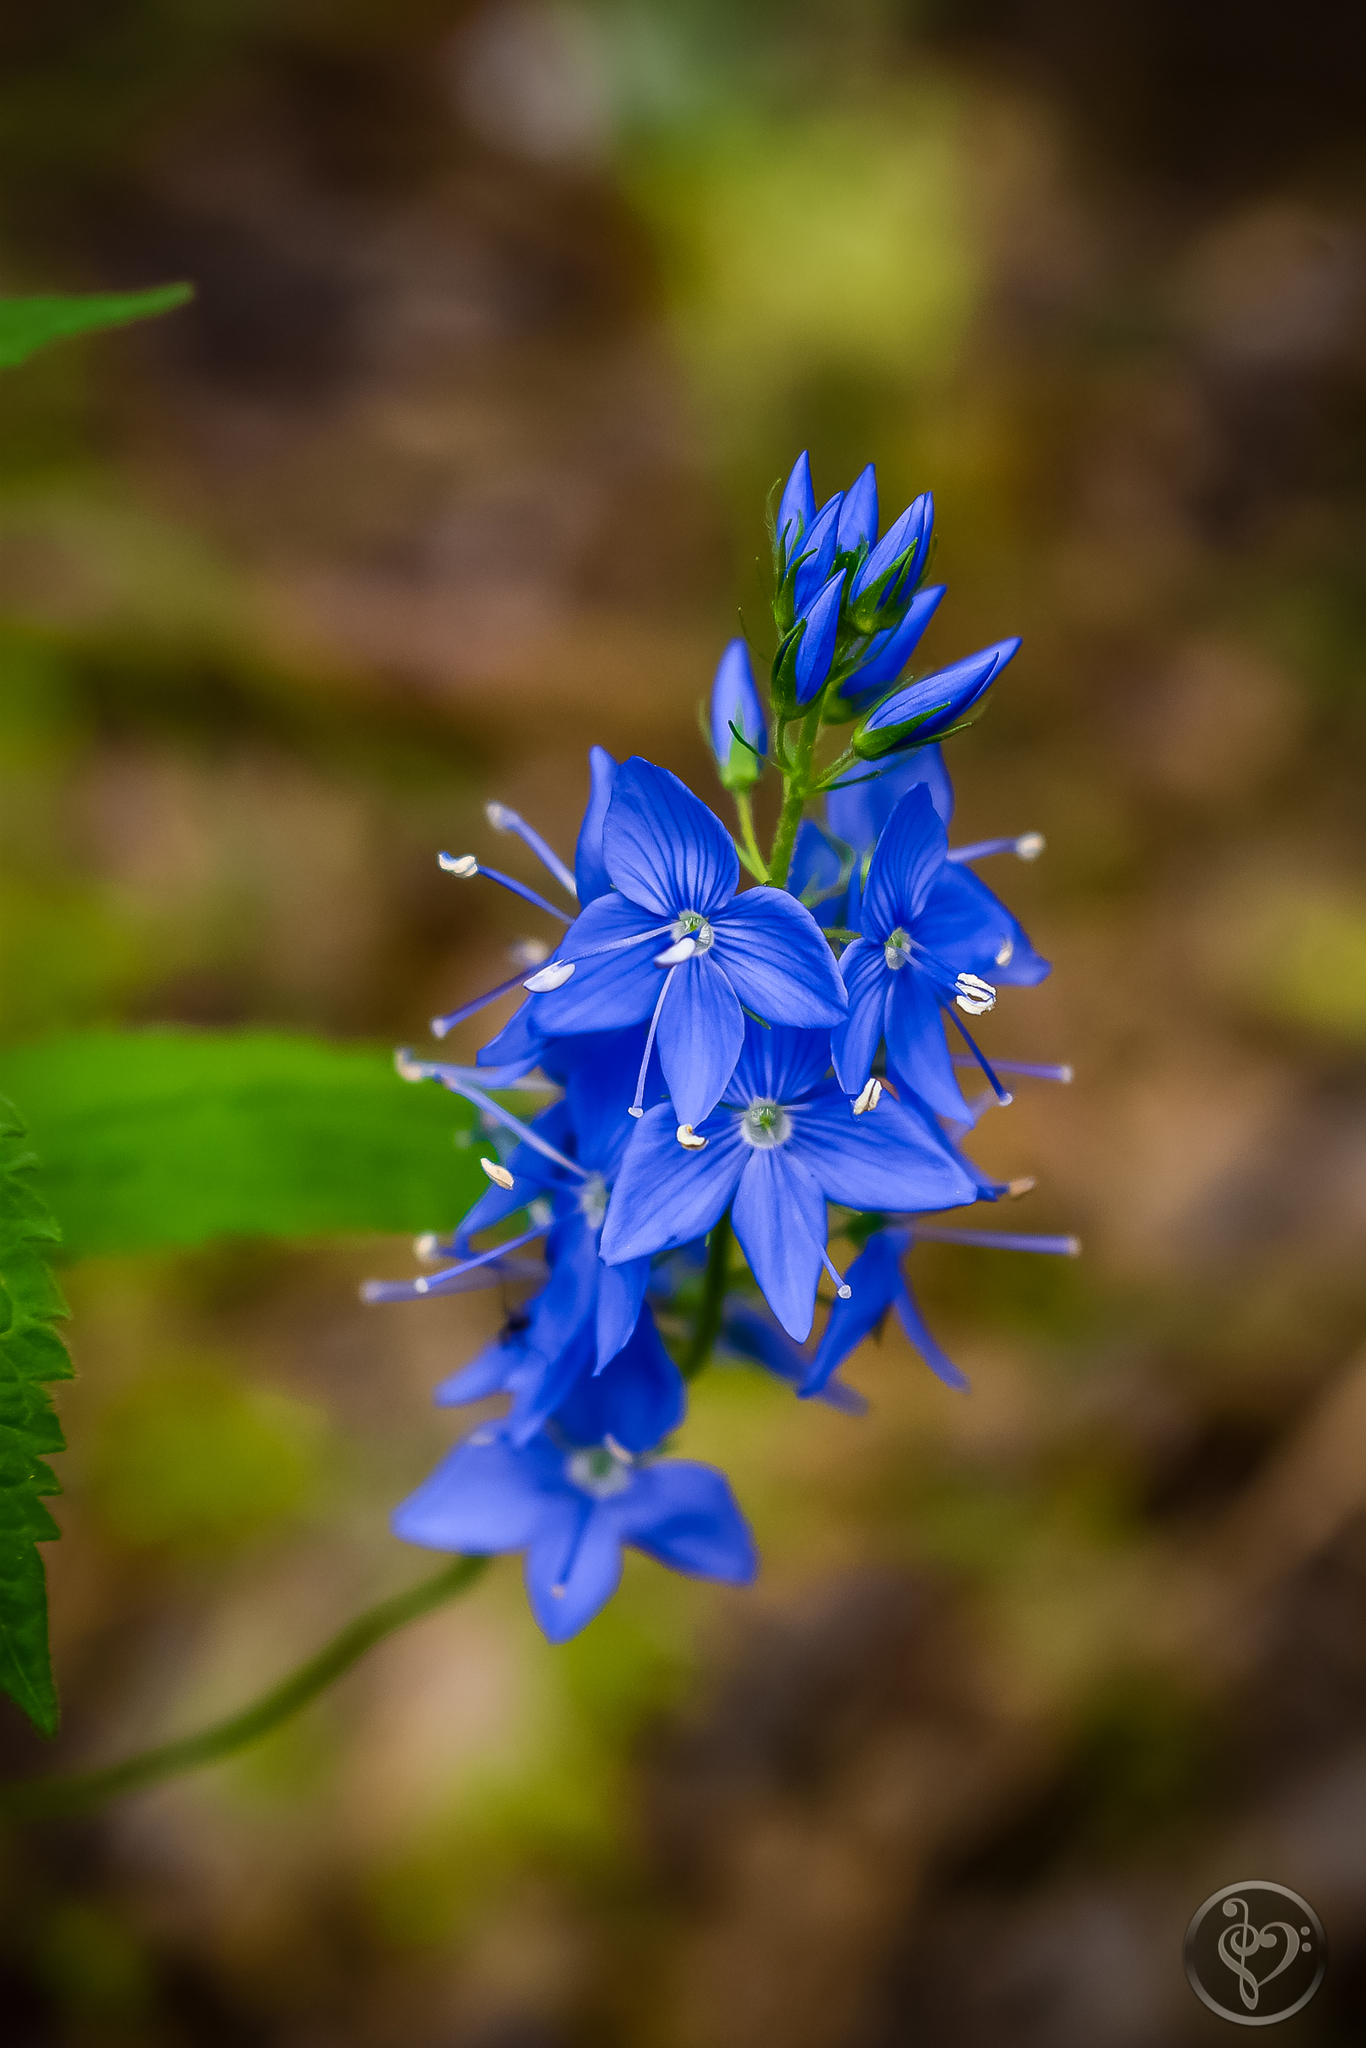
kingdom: Plantae
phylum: Tracheophyta
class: Magnoliopsida
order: Lamiales
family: Plantaginaceae
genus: Veronica
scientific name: Veronica teucrium
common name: Large speedwell
